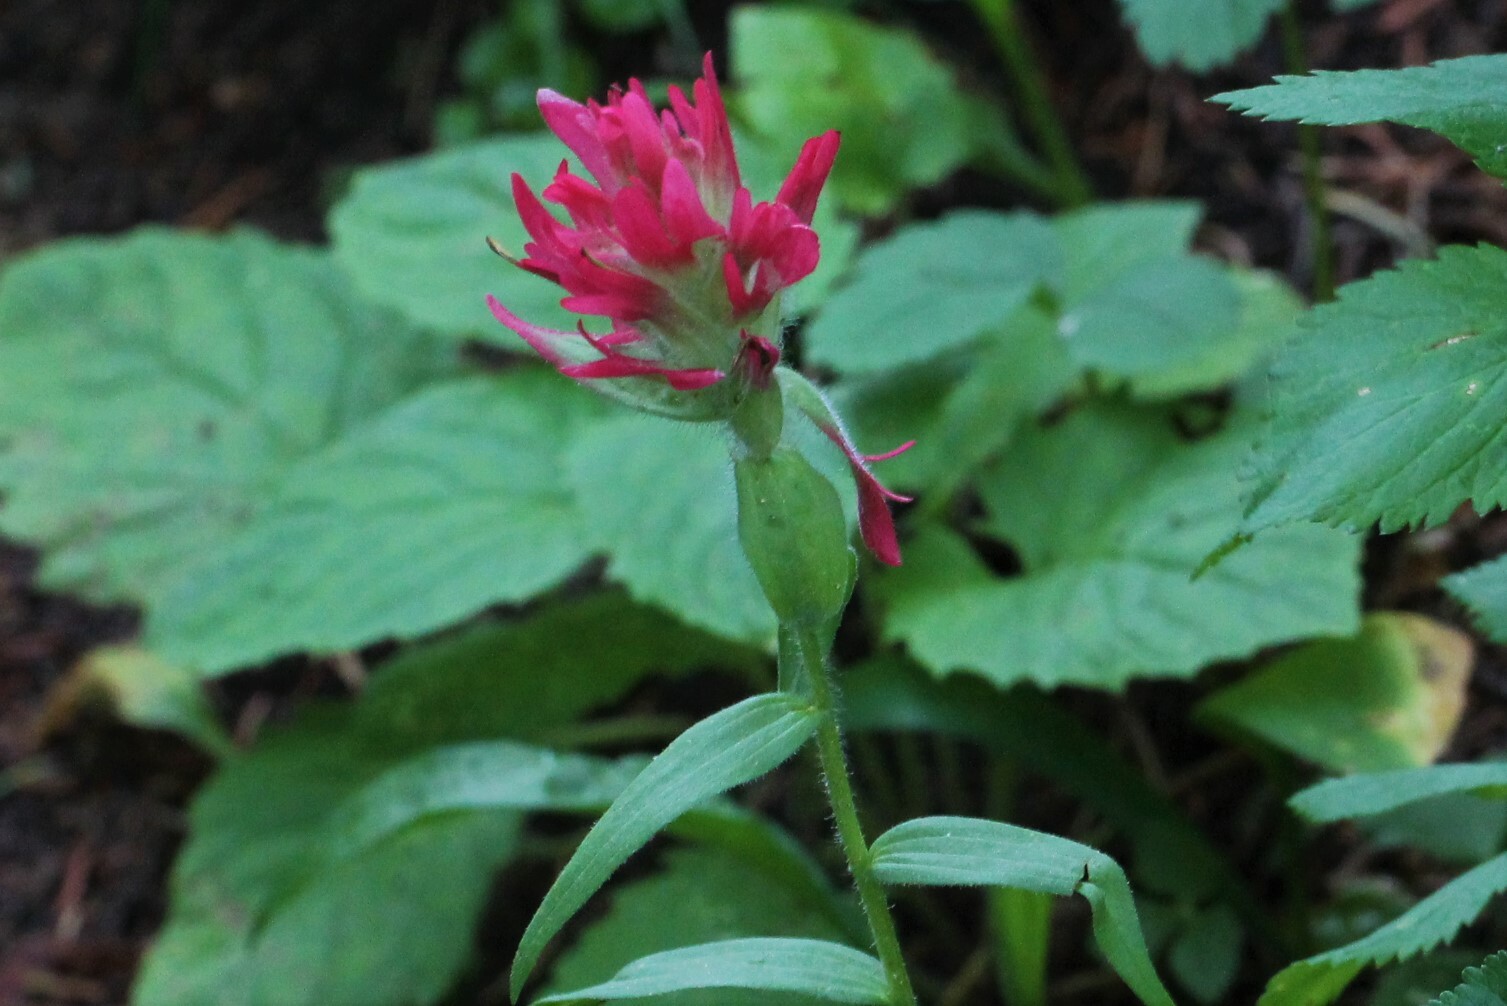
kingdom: Plantae
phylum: Tracheophyta
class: Magnoliopsida
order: Lamiales
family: Orobanchaceae
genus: Castilleja
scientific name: Castilleja rhexifolia
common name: Rocky mountain paintbrush
